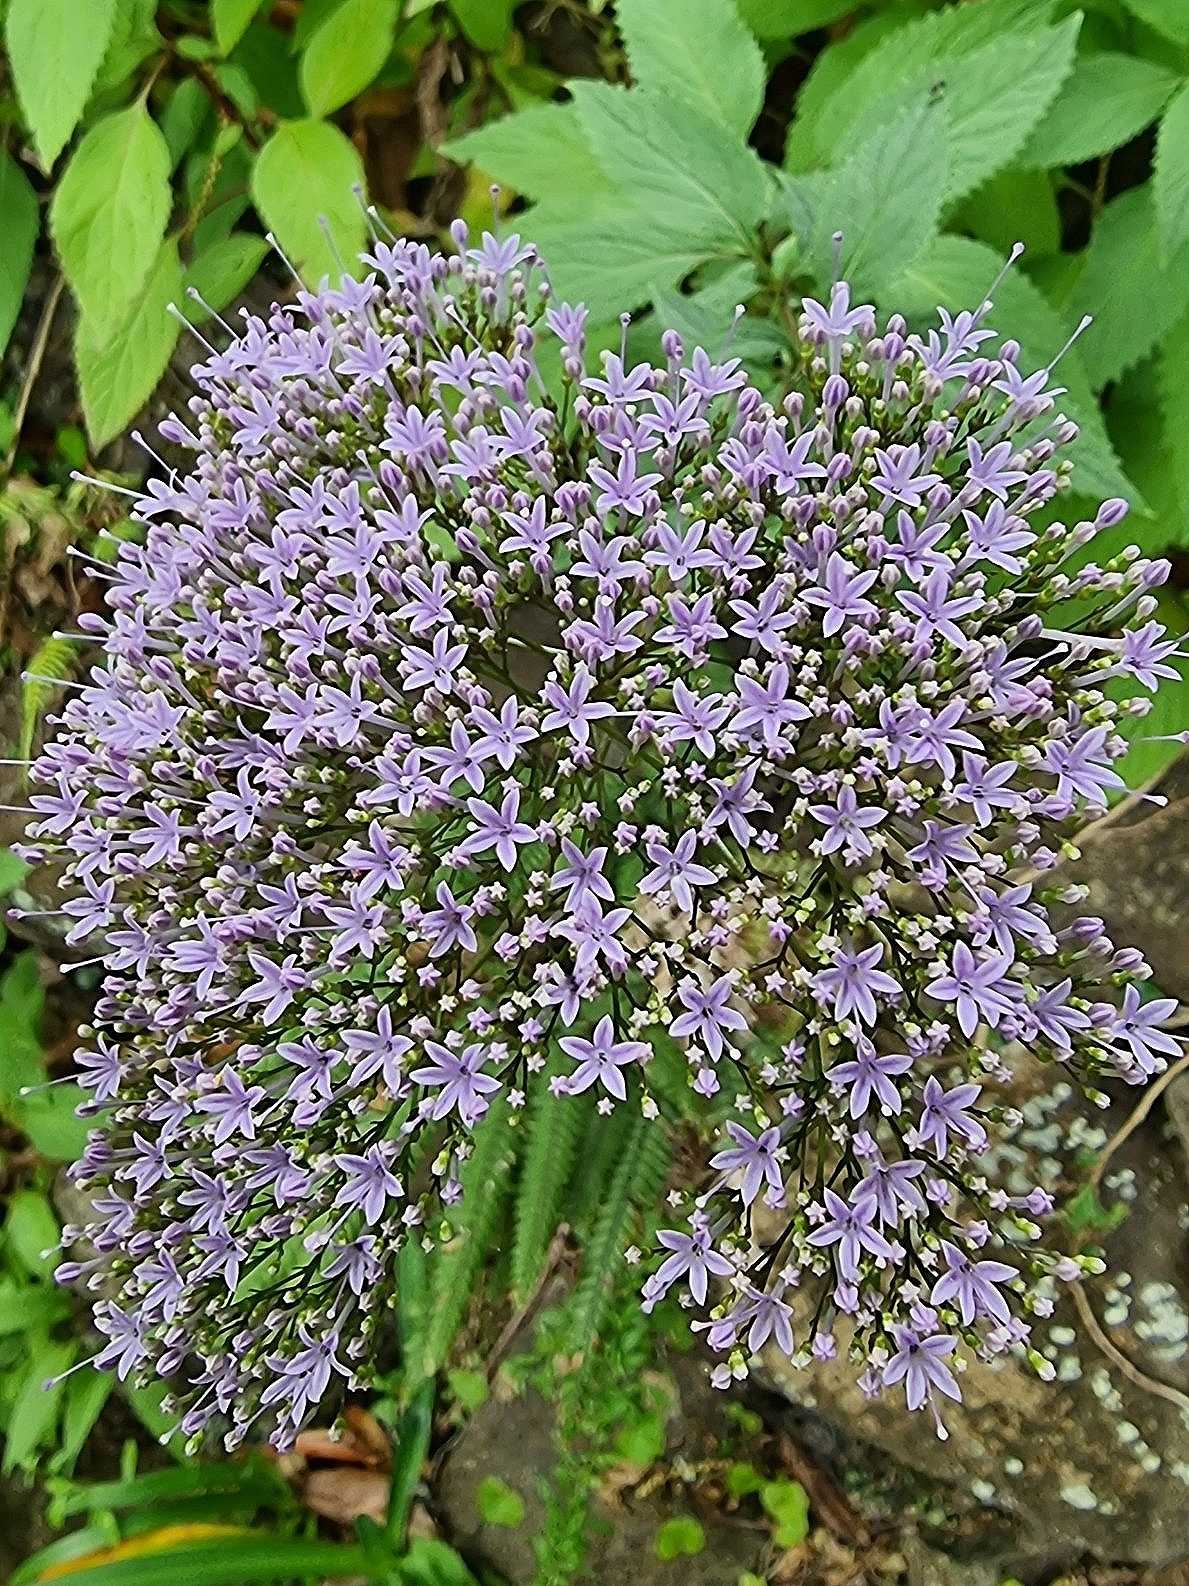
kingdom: Plantae
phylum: Tracheophyta
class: Magnoliopsida
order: Asterales
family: Campanulaceae
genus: Trachelium
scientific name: Trachelium caeruleum
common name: Throatwort
